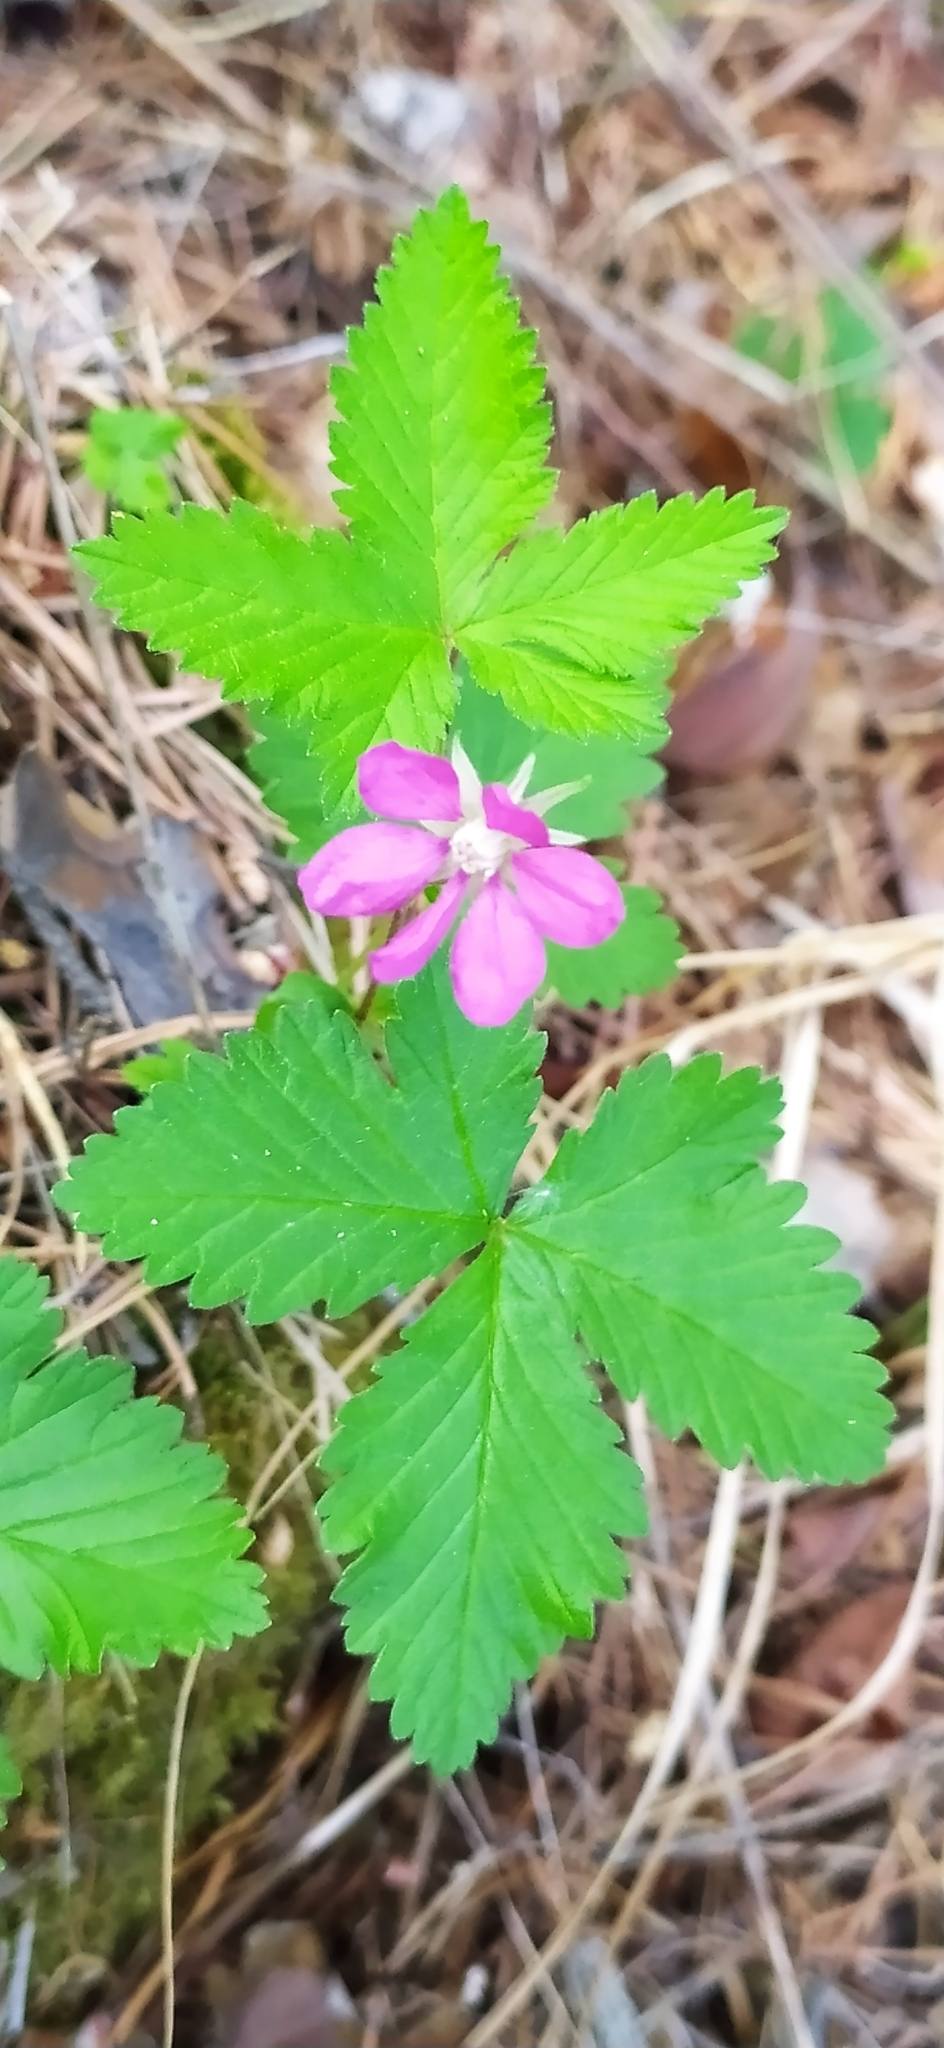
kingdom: Plantae
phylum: Tracheophyta
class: Magnoliopsida
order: Rosales
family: Rosaceae
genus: Rubus
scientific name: Rubus arcticus
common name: Arctic bramble
